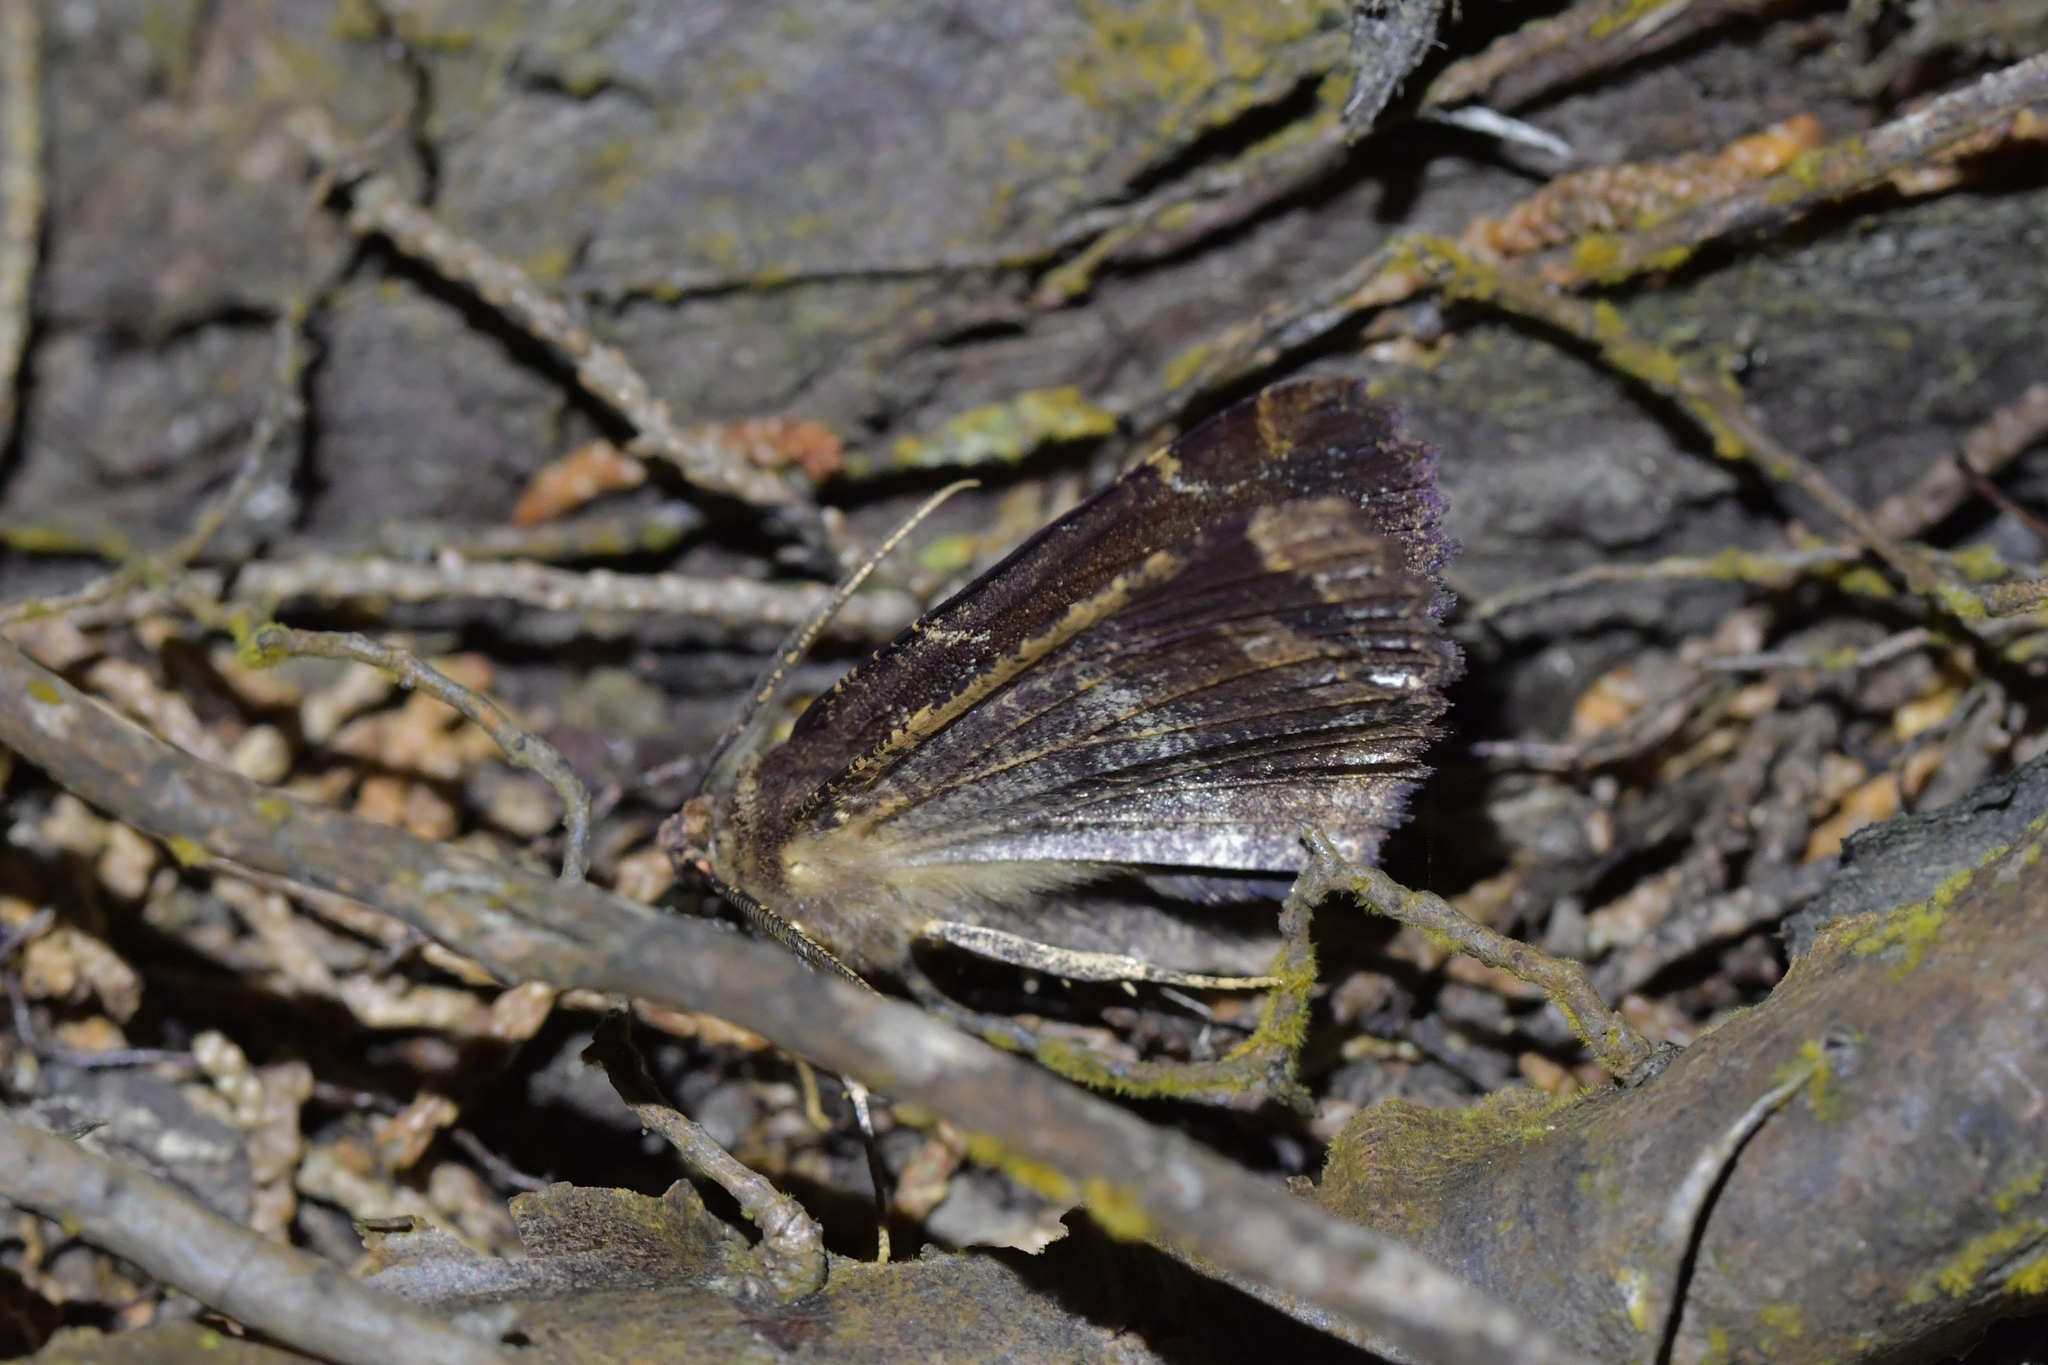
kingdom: Animalia
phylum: Arthropoda
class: Insecta
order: Lepidoptera
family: Geometridae
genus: Gellonia
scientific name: Gellonia dejectaria
